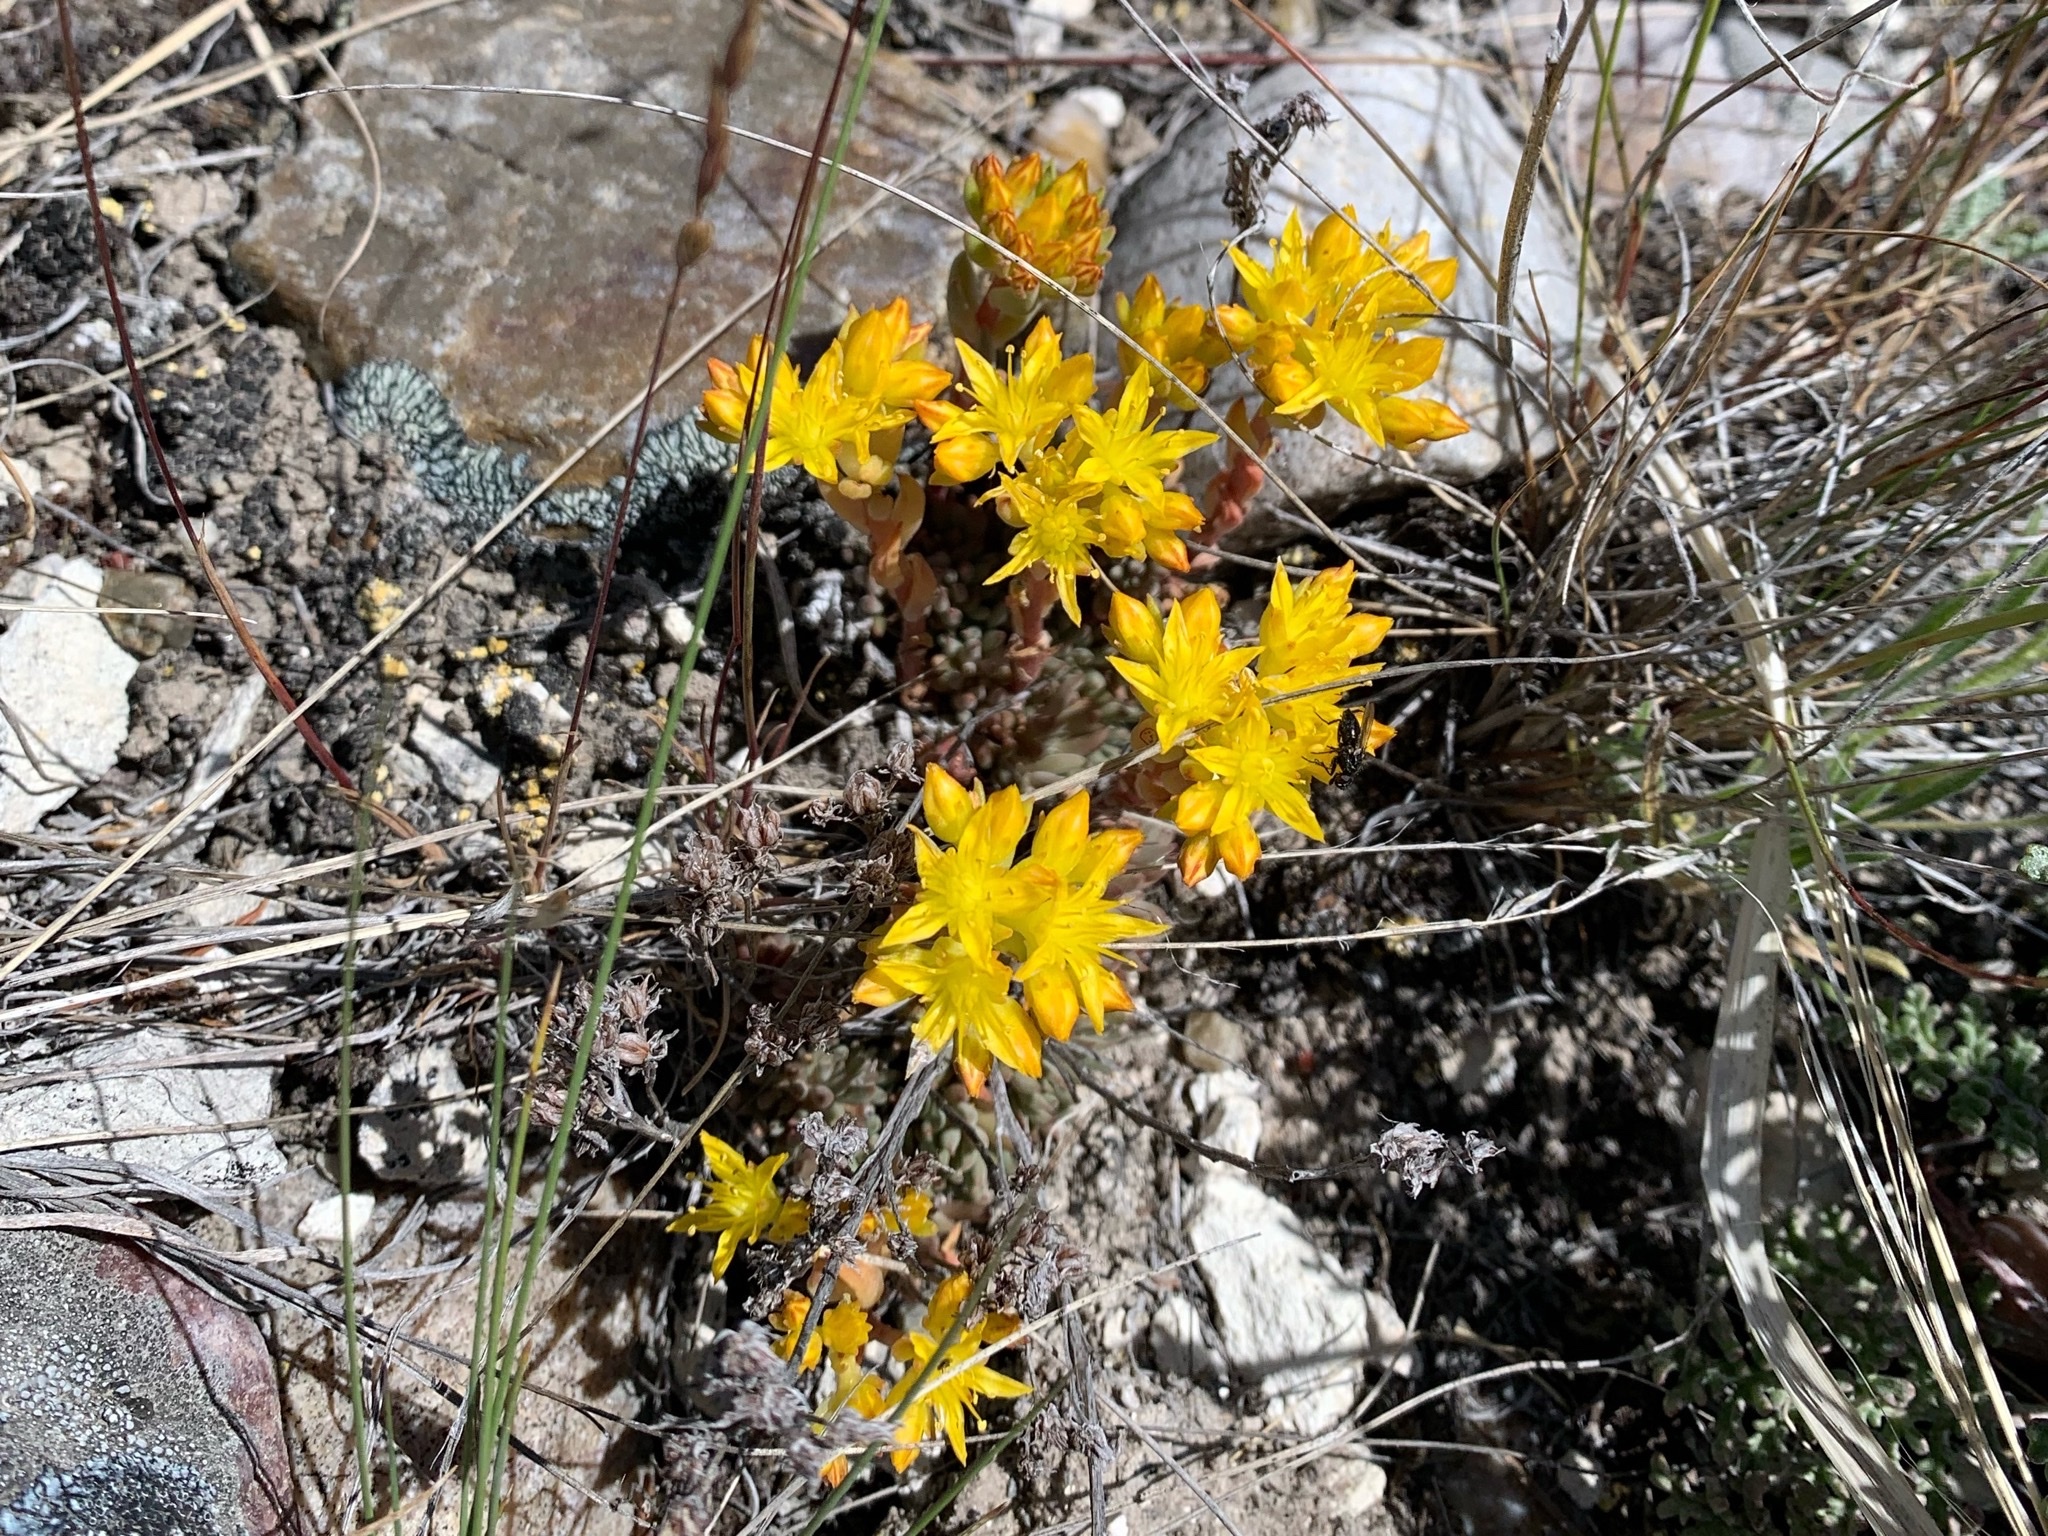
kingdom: Plantae
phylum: Tracheophyta
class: Magnoliopsida
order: Saxifragales
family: Crassulaceae
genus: Sedum
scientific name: Sedum lanceolatum
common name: Common stonecrop
